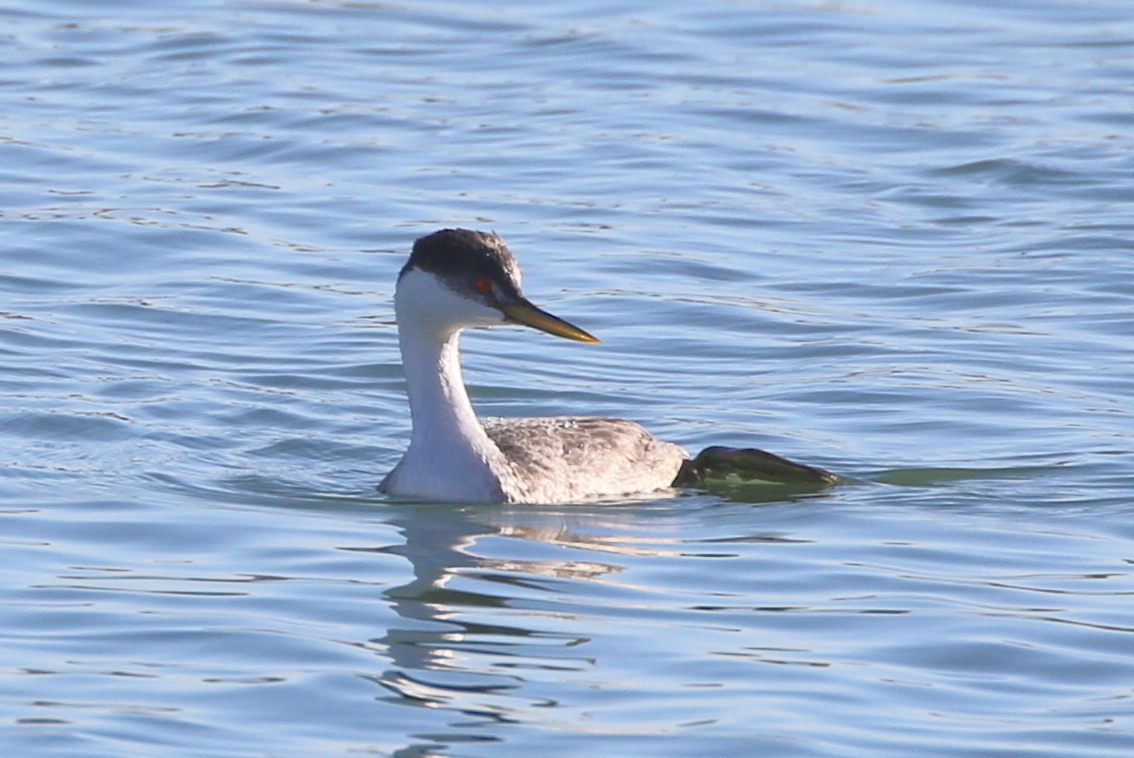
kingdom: Animalia
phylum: Chordata
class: Aves
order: Podicipediformes
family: Podicipedidae
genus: Aechmophorus
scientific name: Aechmophorus occidentalis
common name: Western grebe
